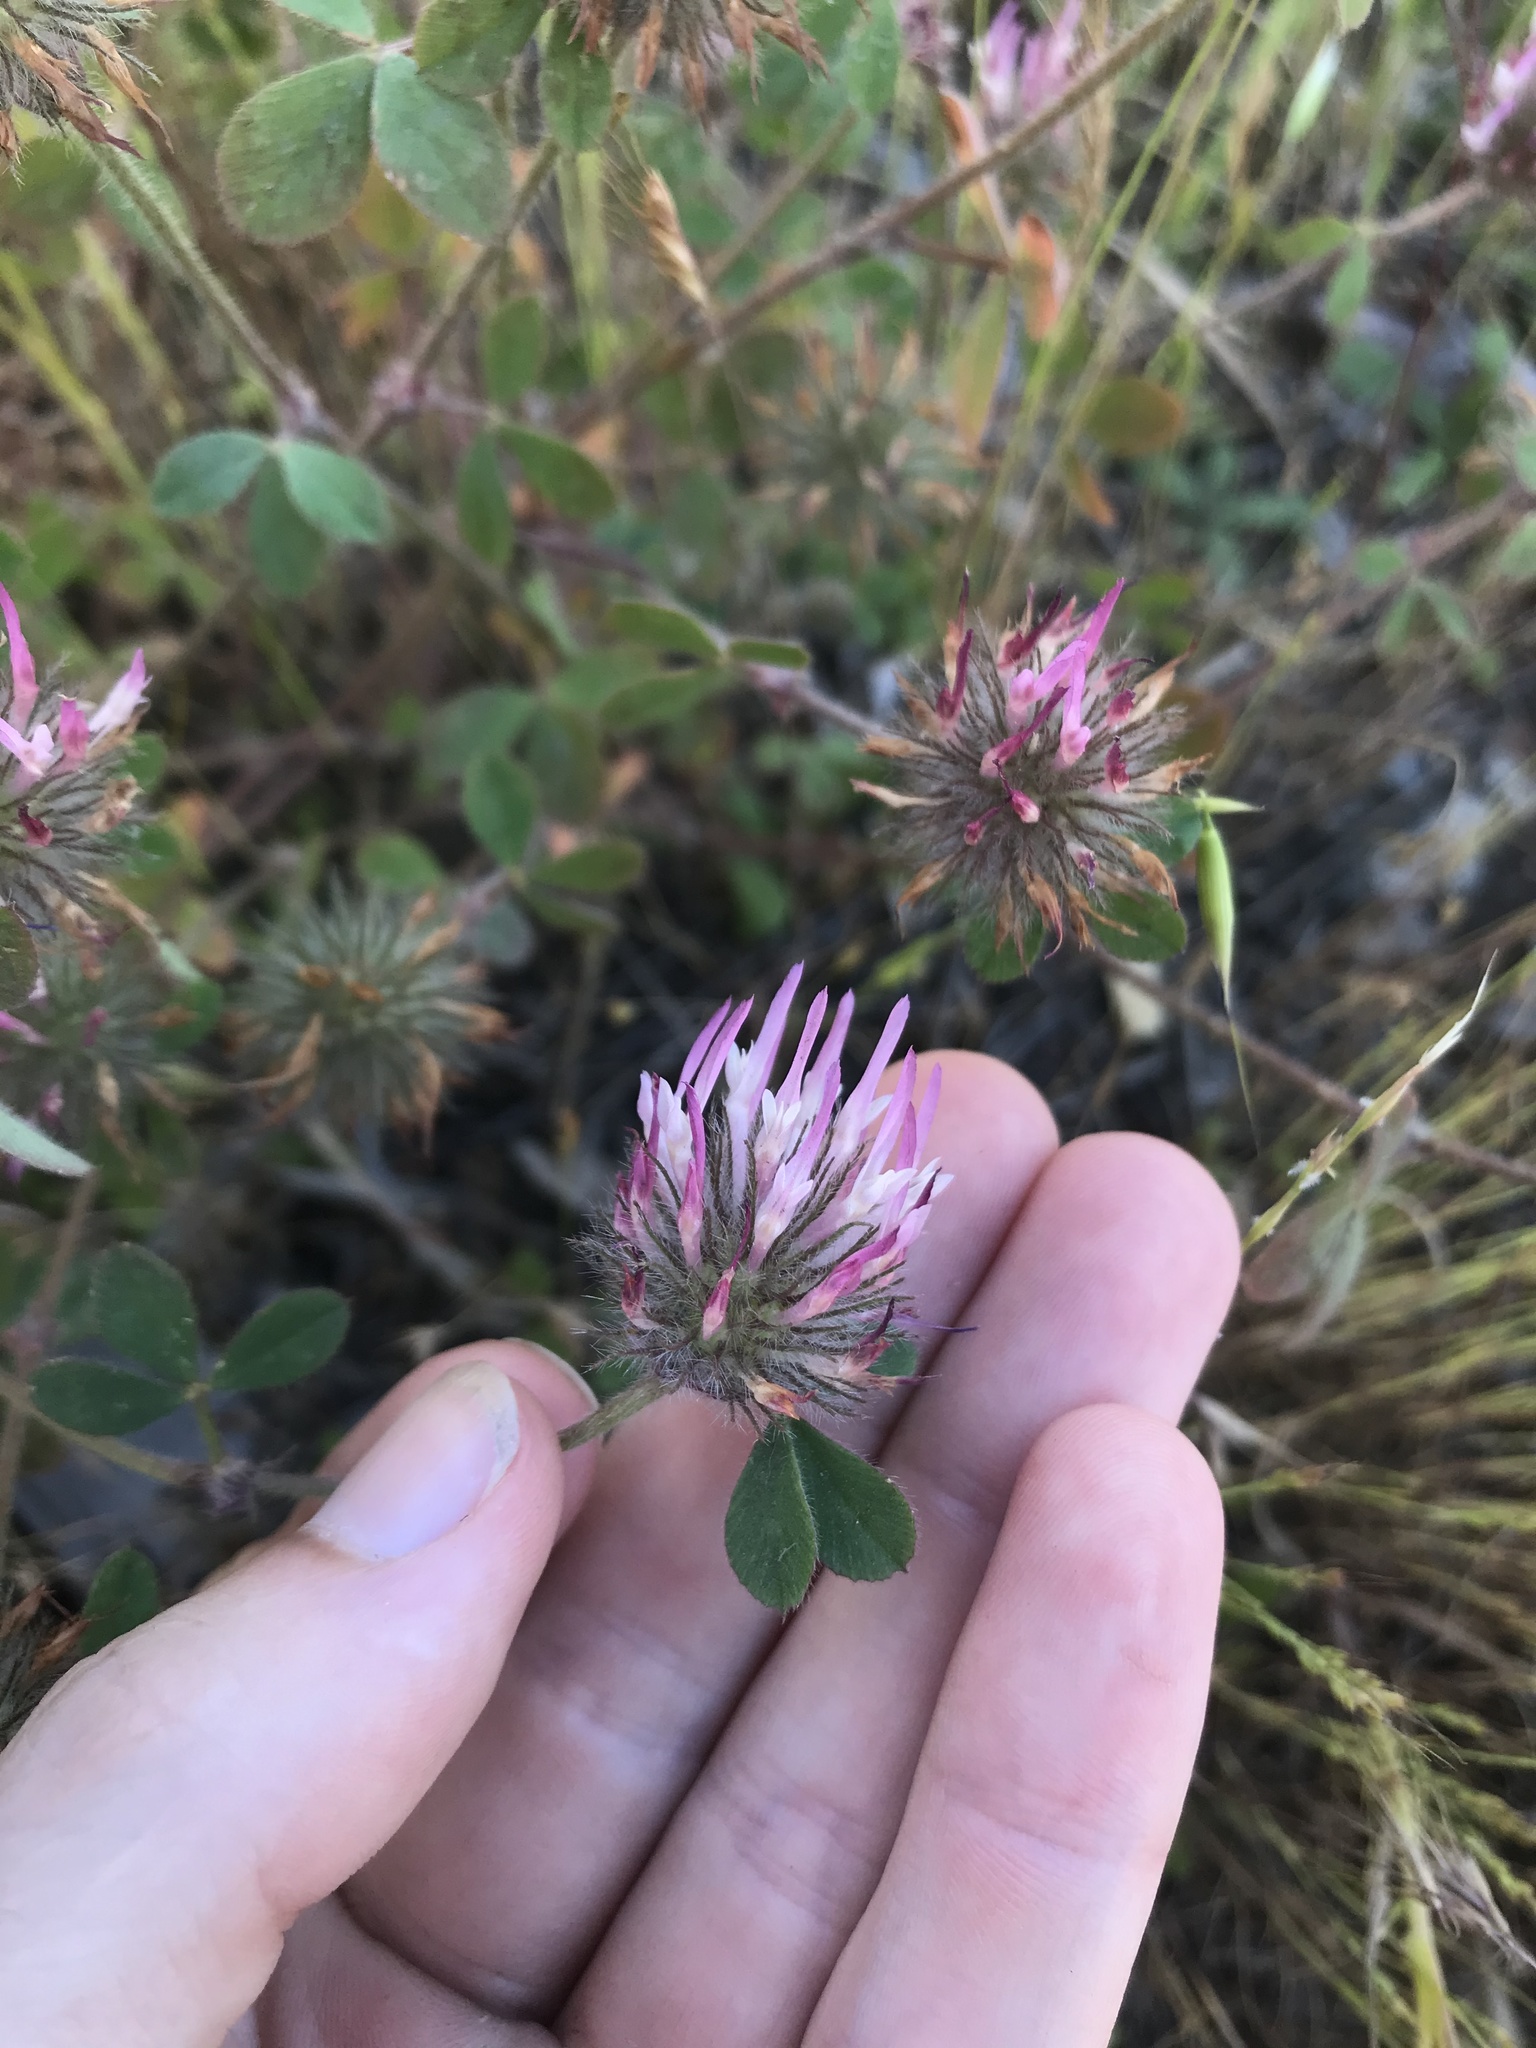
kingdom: Plantae
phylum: Tracheophyta
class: Magnoliopsida
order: Fabales
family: Fabaceae
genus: Trifolium
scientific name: Trifolium hirtum
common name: Rose clover
